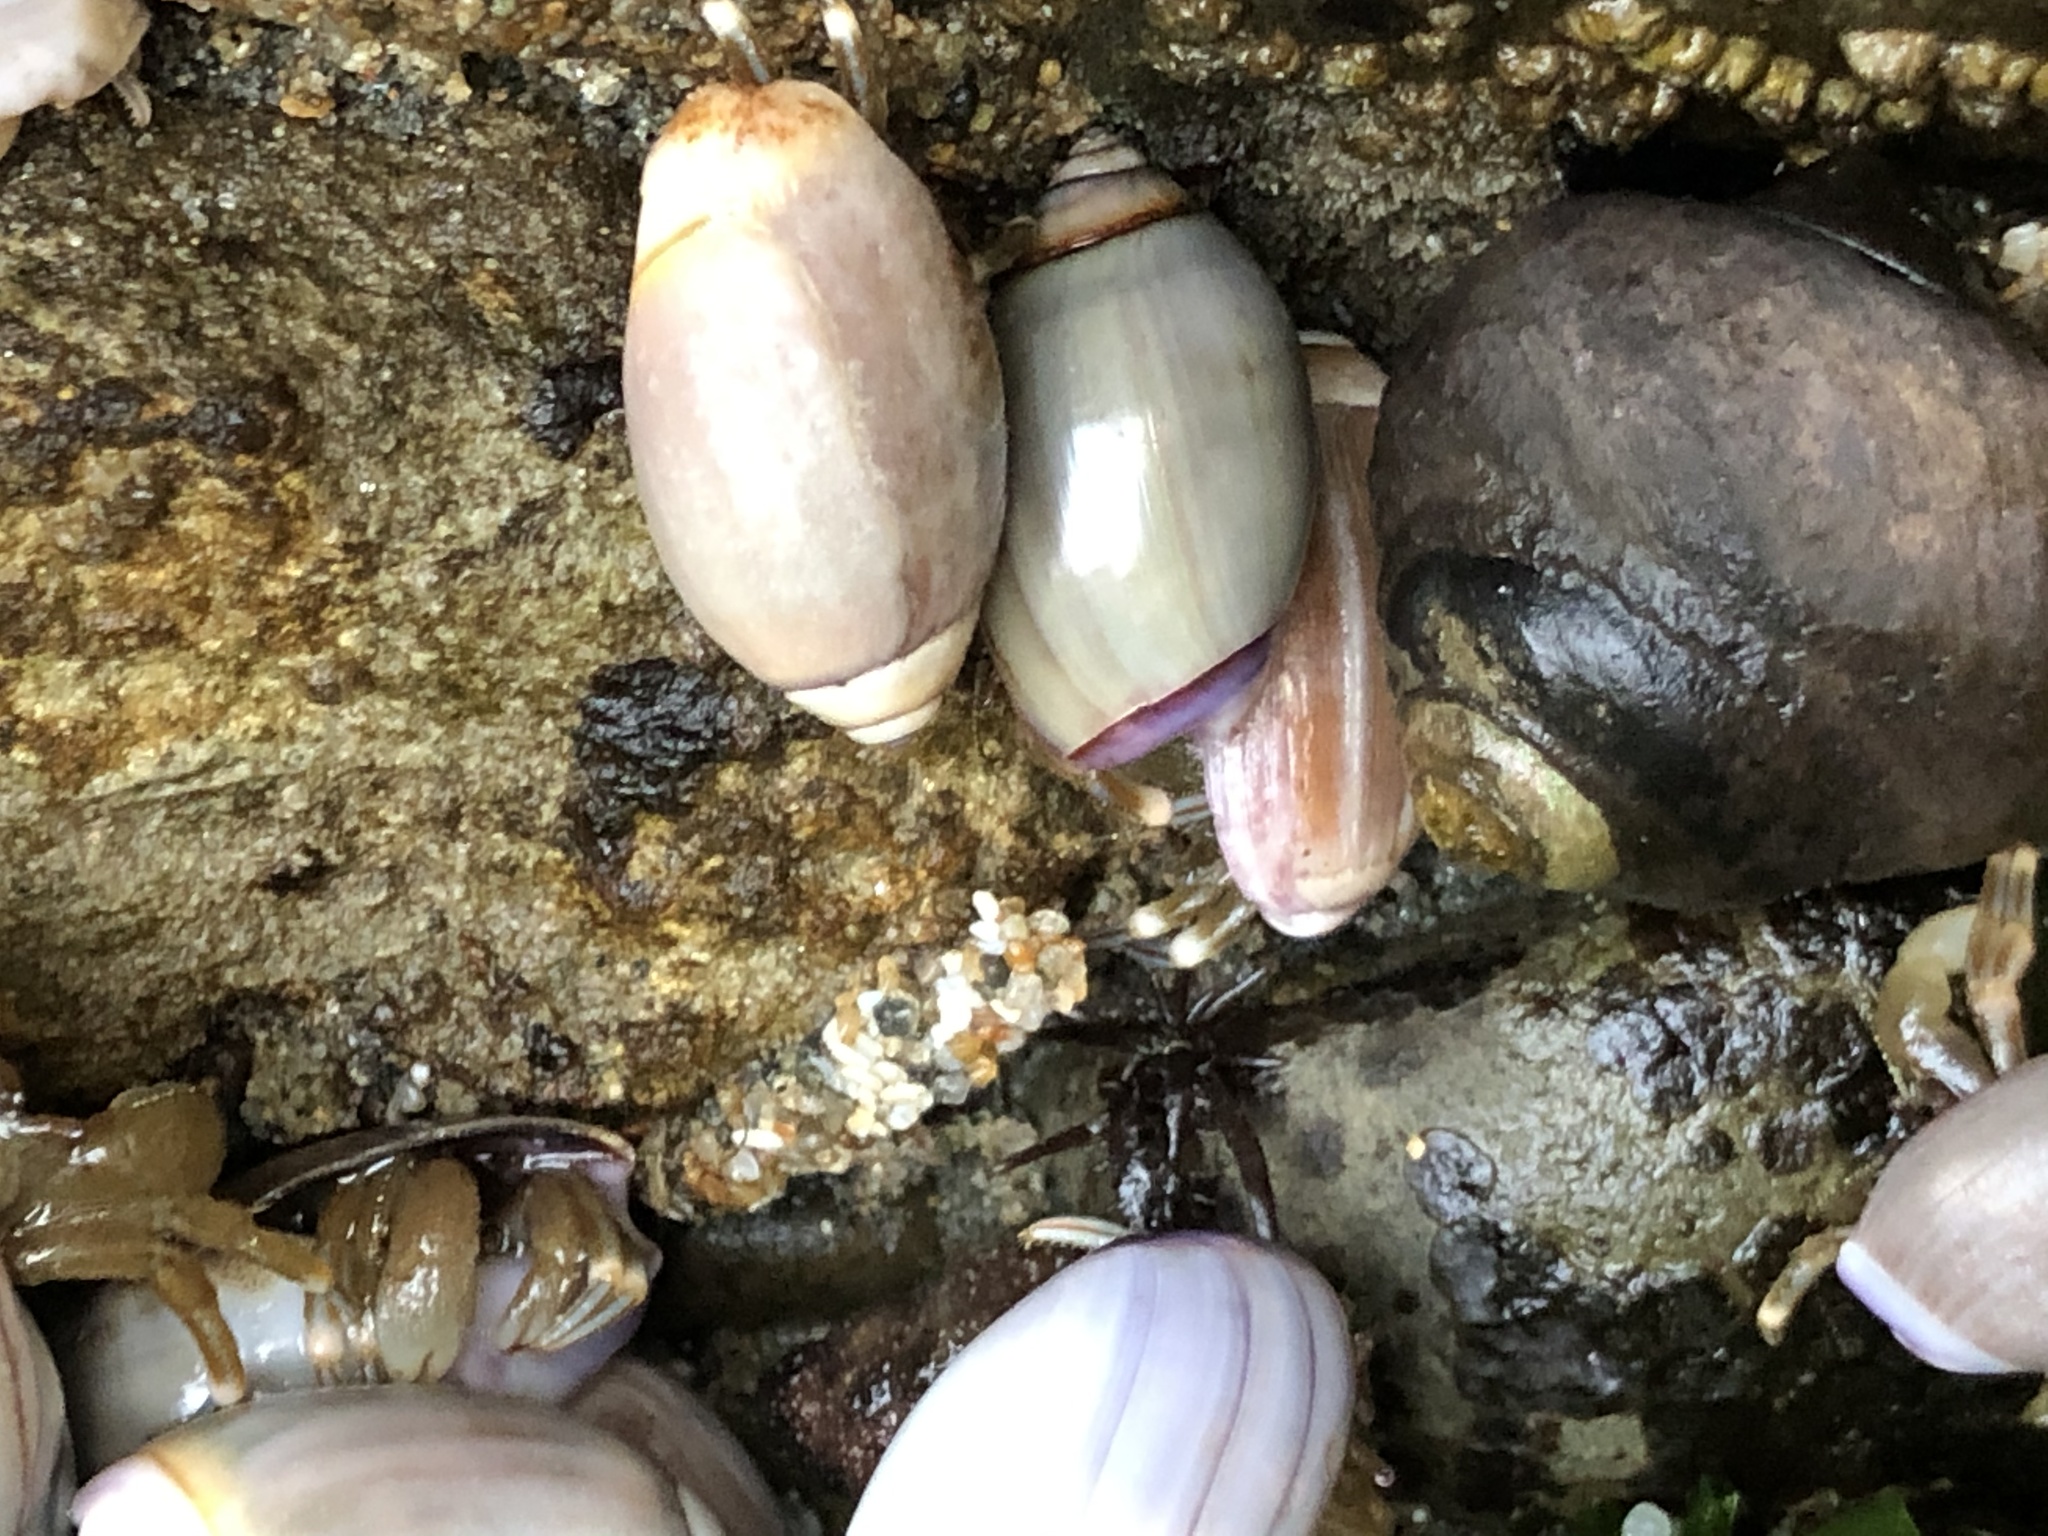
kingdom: Animalia
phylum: Mollusca
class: Gastropoda
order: Neogastropoda
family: Olividae
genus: Callianax
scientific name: Callianax biplicata
